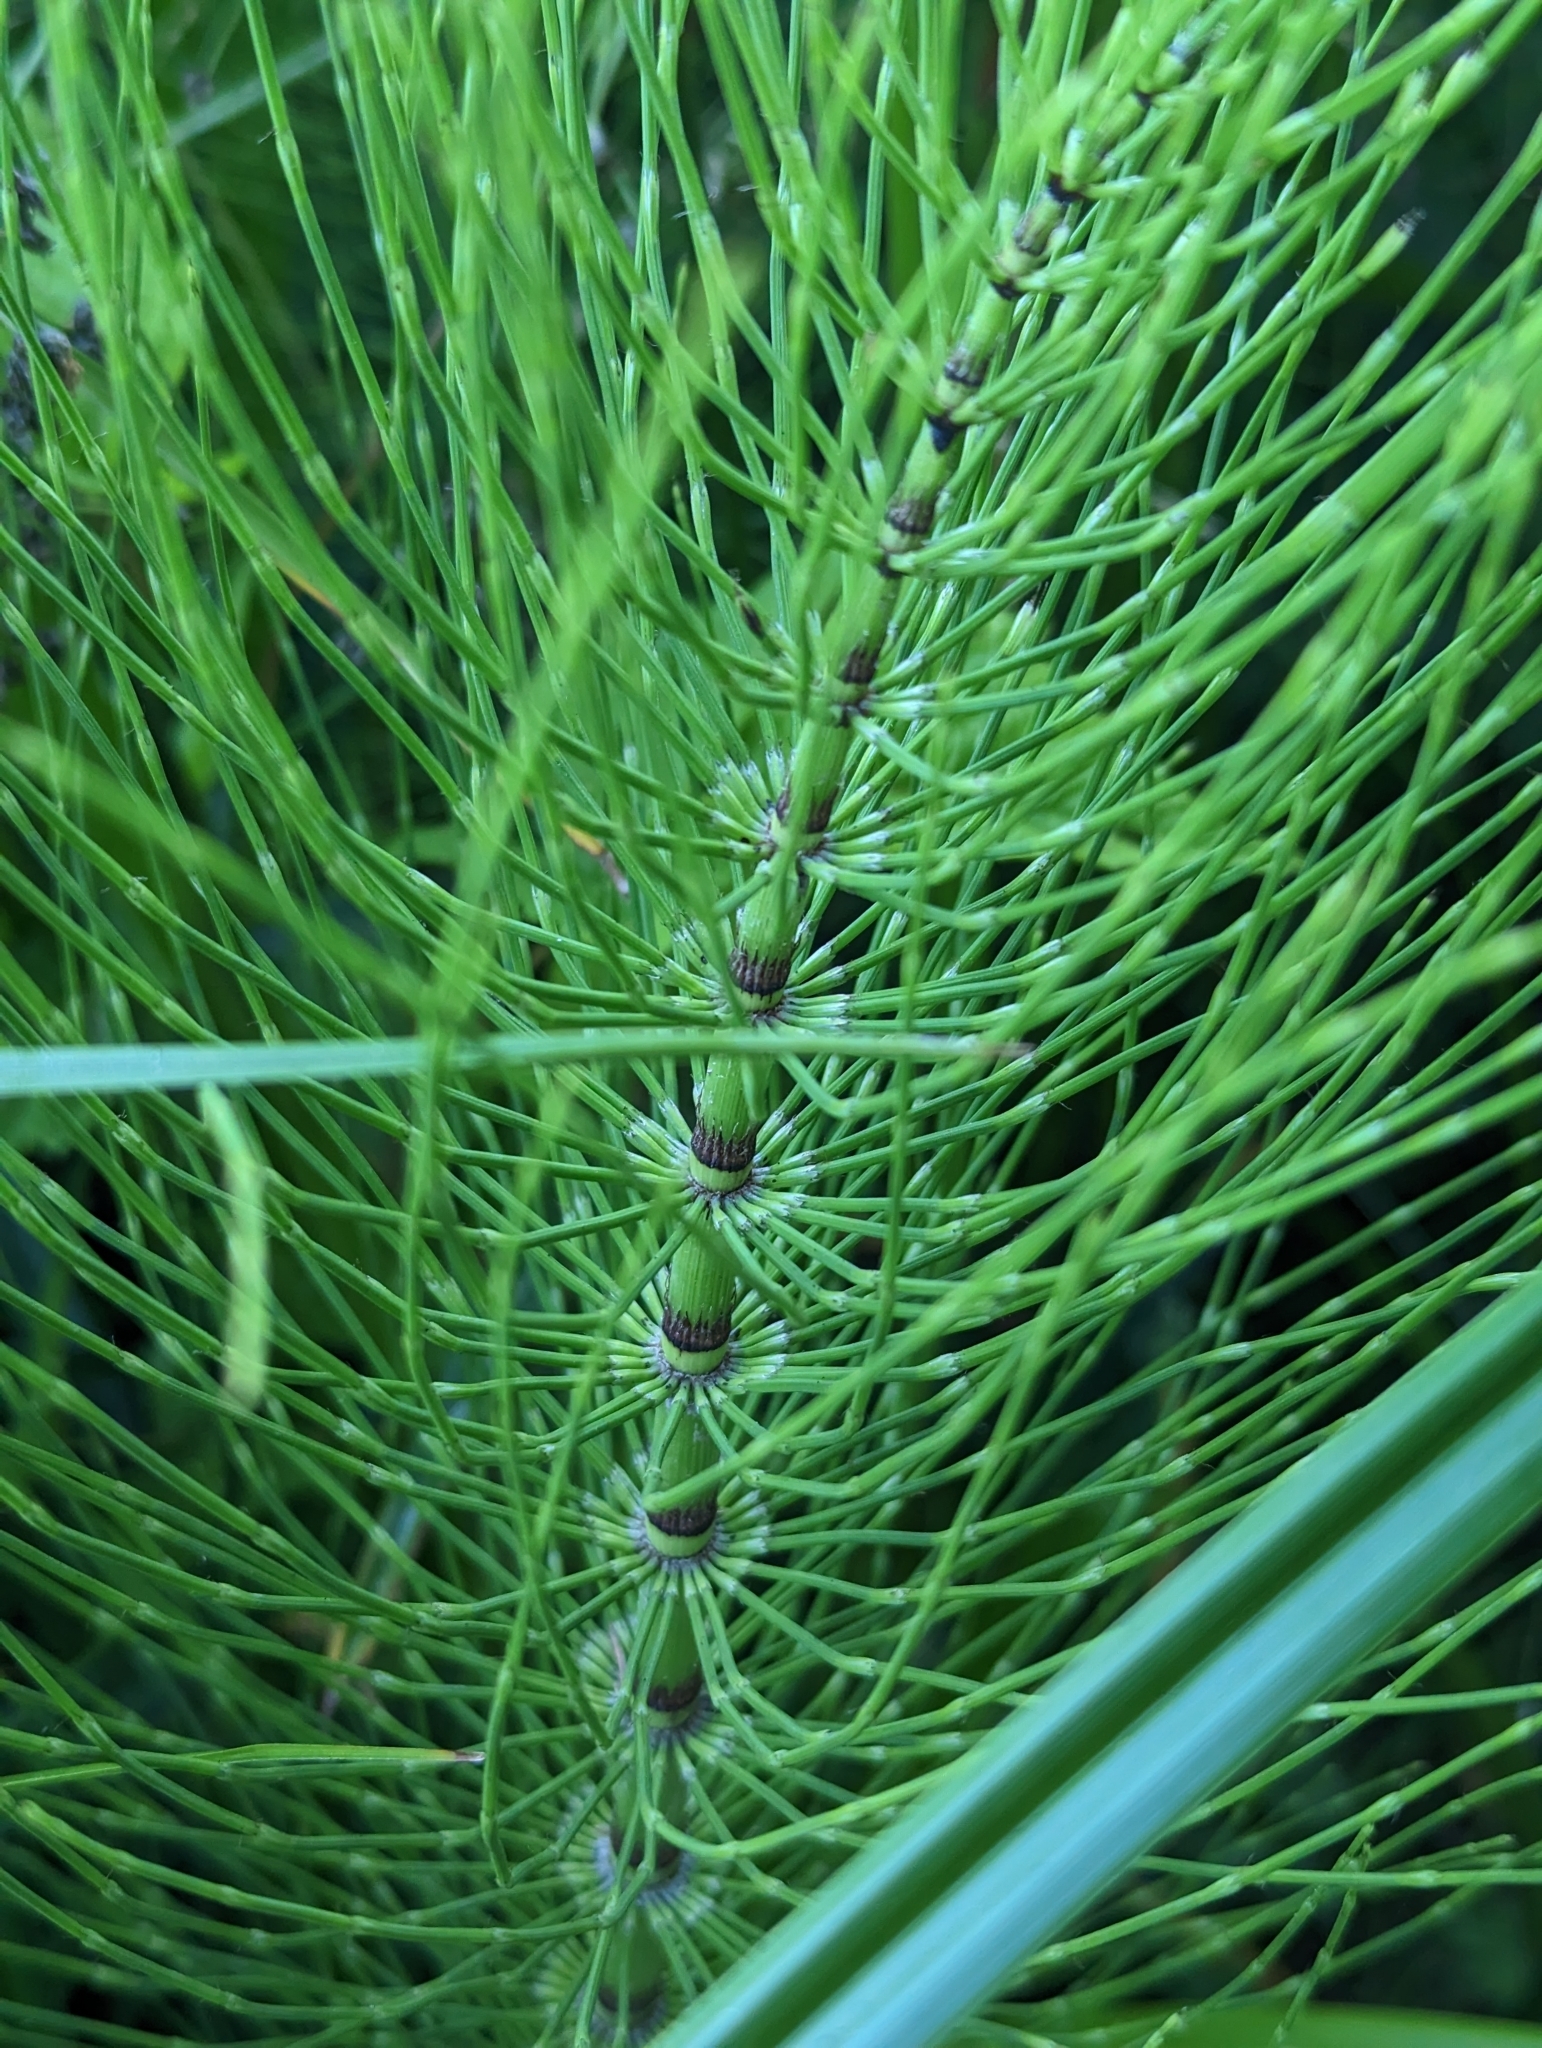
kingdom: Plantae
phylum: Tracheophyta
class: Polypodiopsida
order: Equisetales
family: Equisetaceae
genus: Equisetum
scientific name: Equisetum braunii
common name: Braun's horsetail
